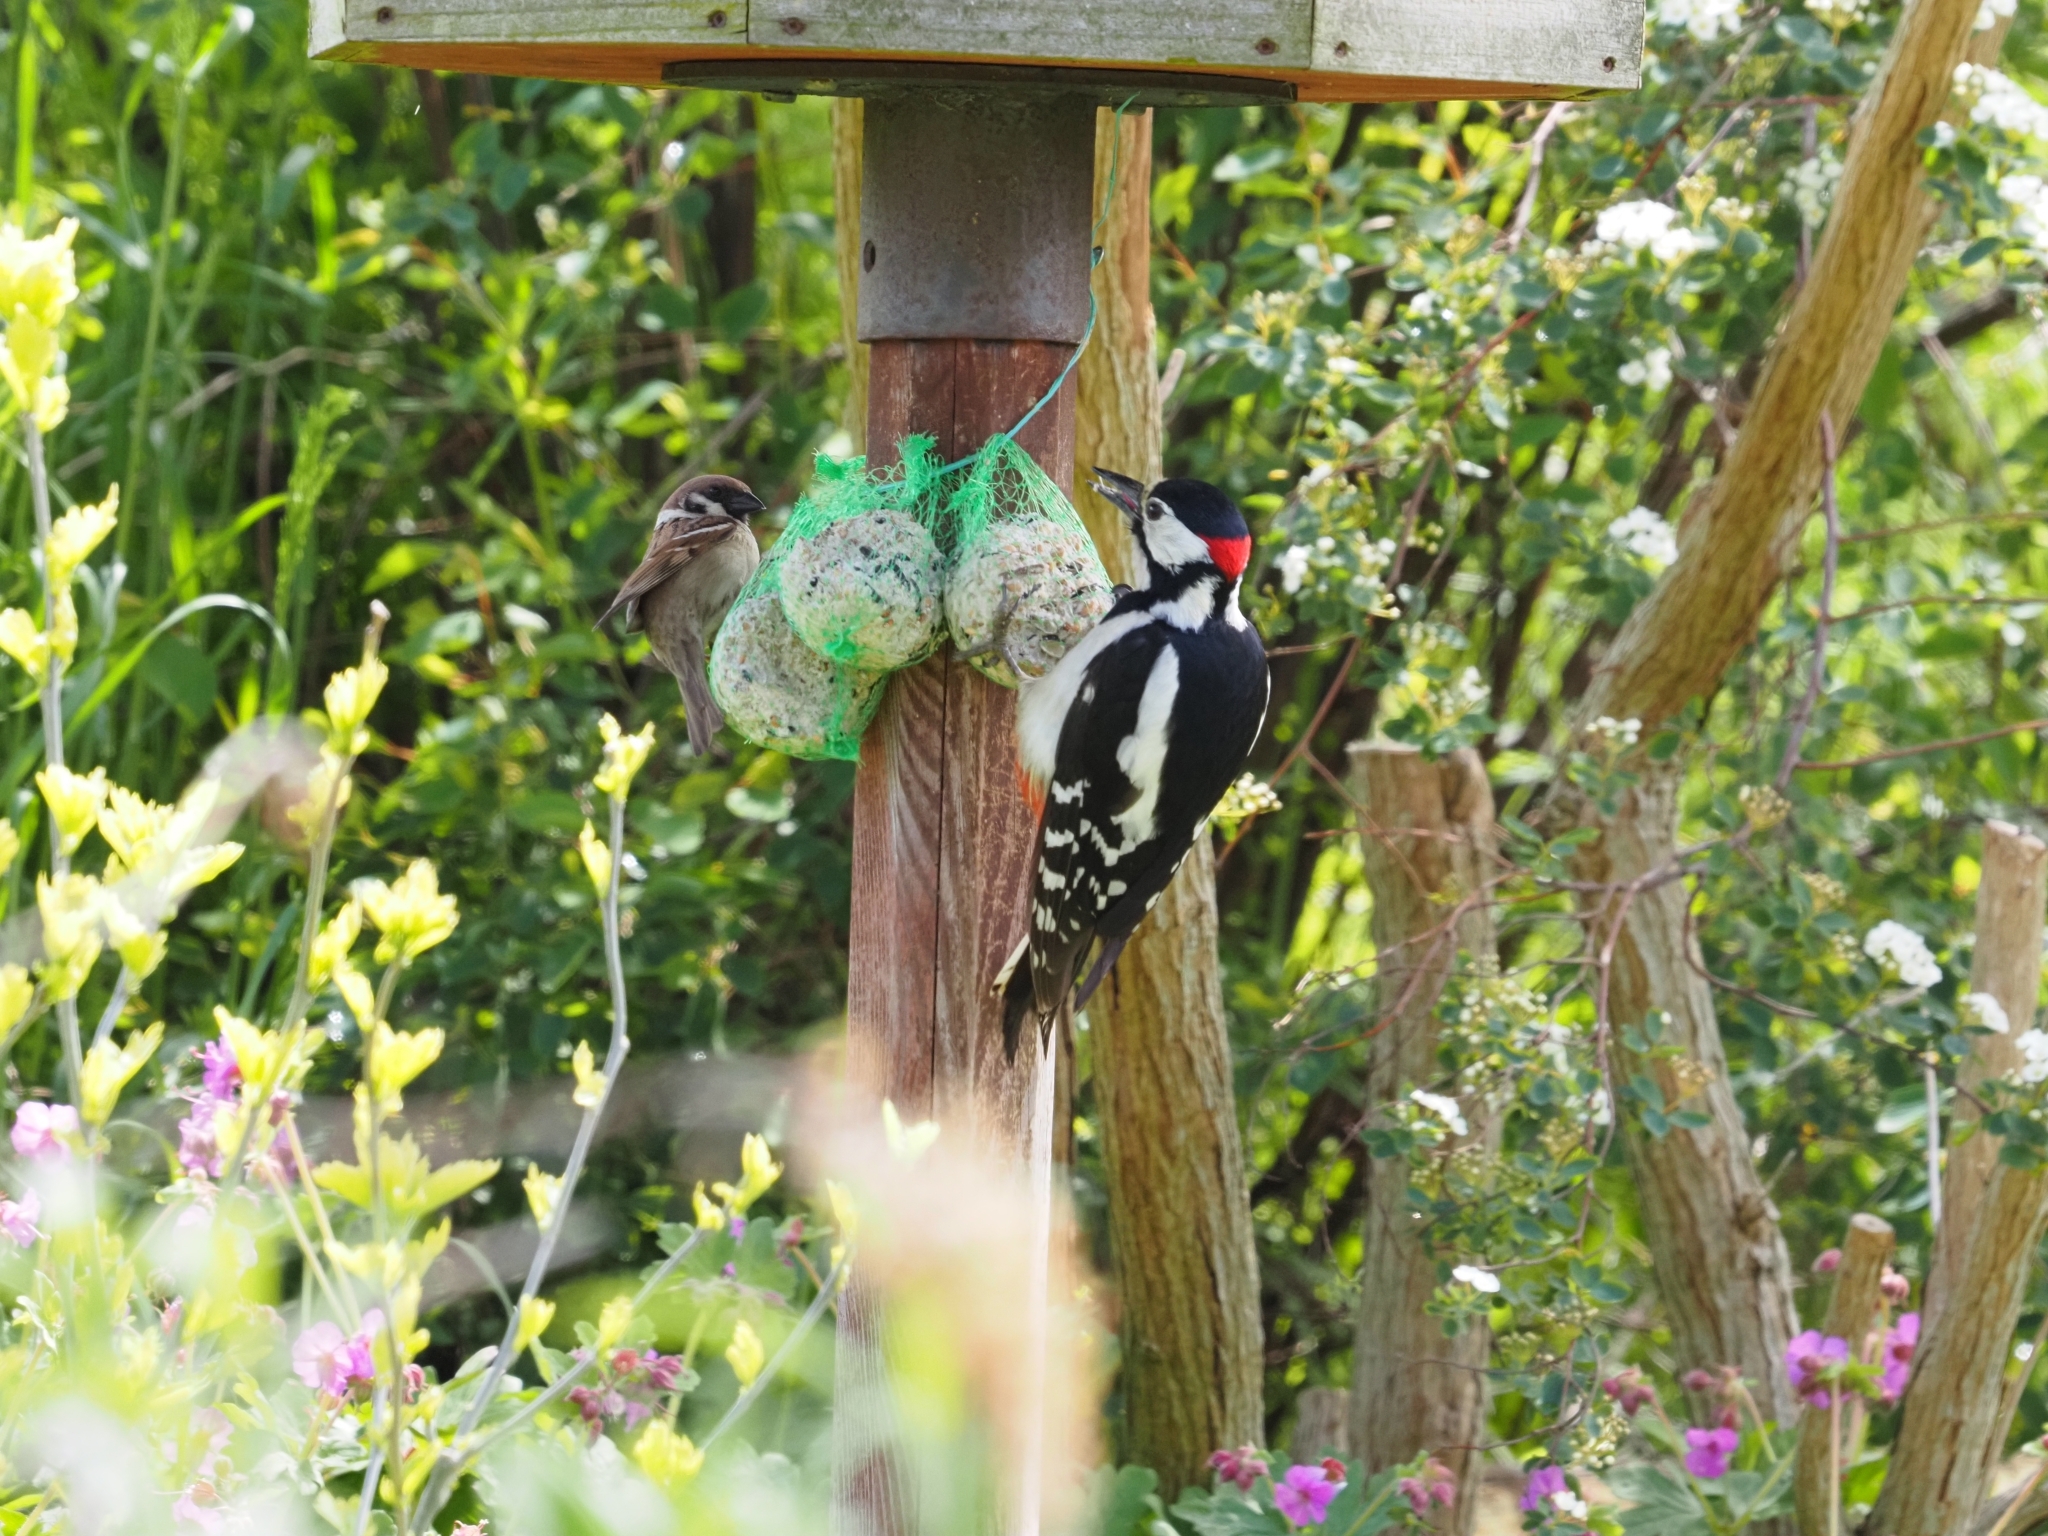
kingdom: Animalia
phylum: Chordata
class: Aves
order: Piciformes
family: Picidae
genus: Dendrocopos
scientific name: Dendrocopos major
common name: Great spotted woodpecker
